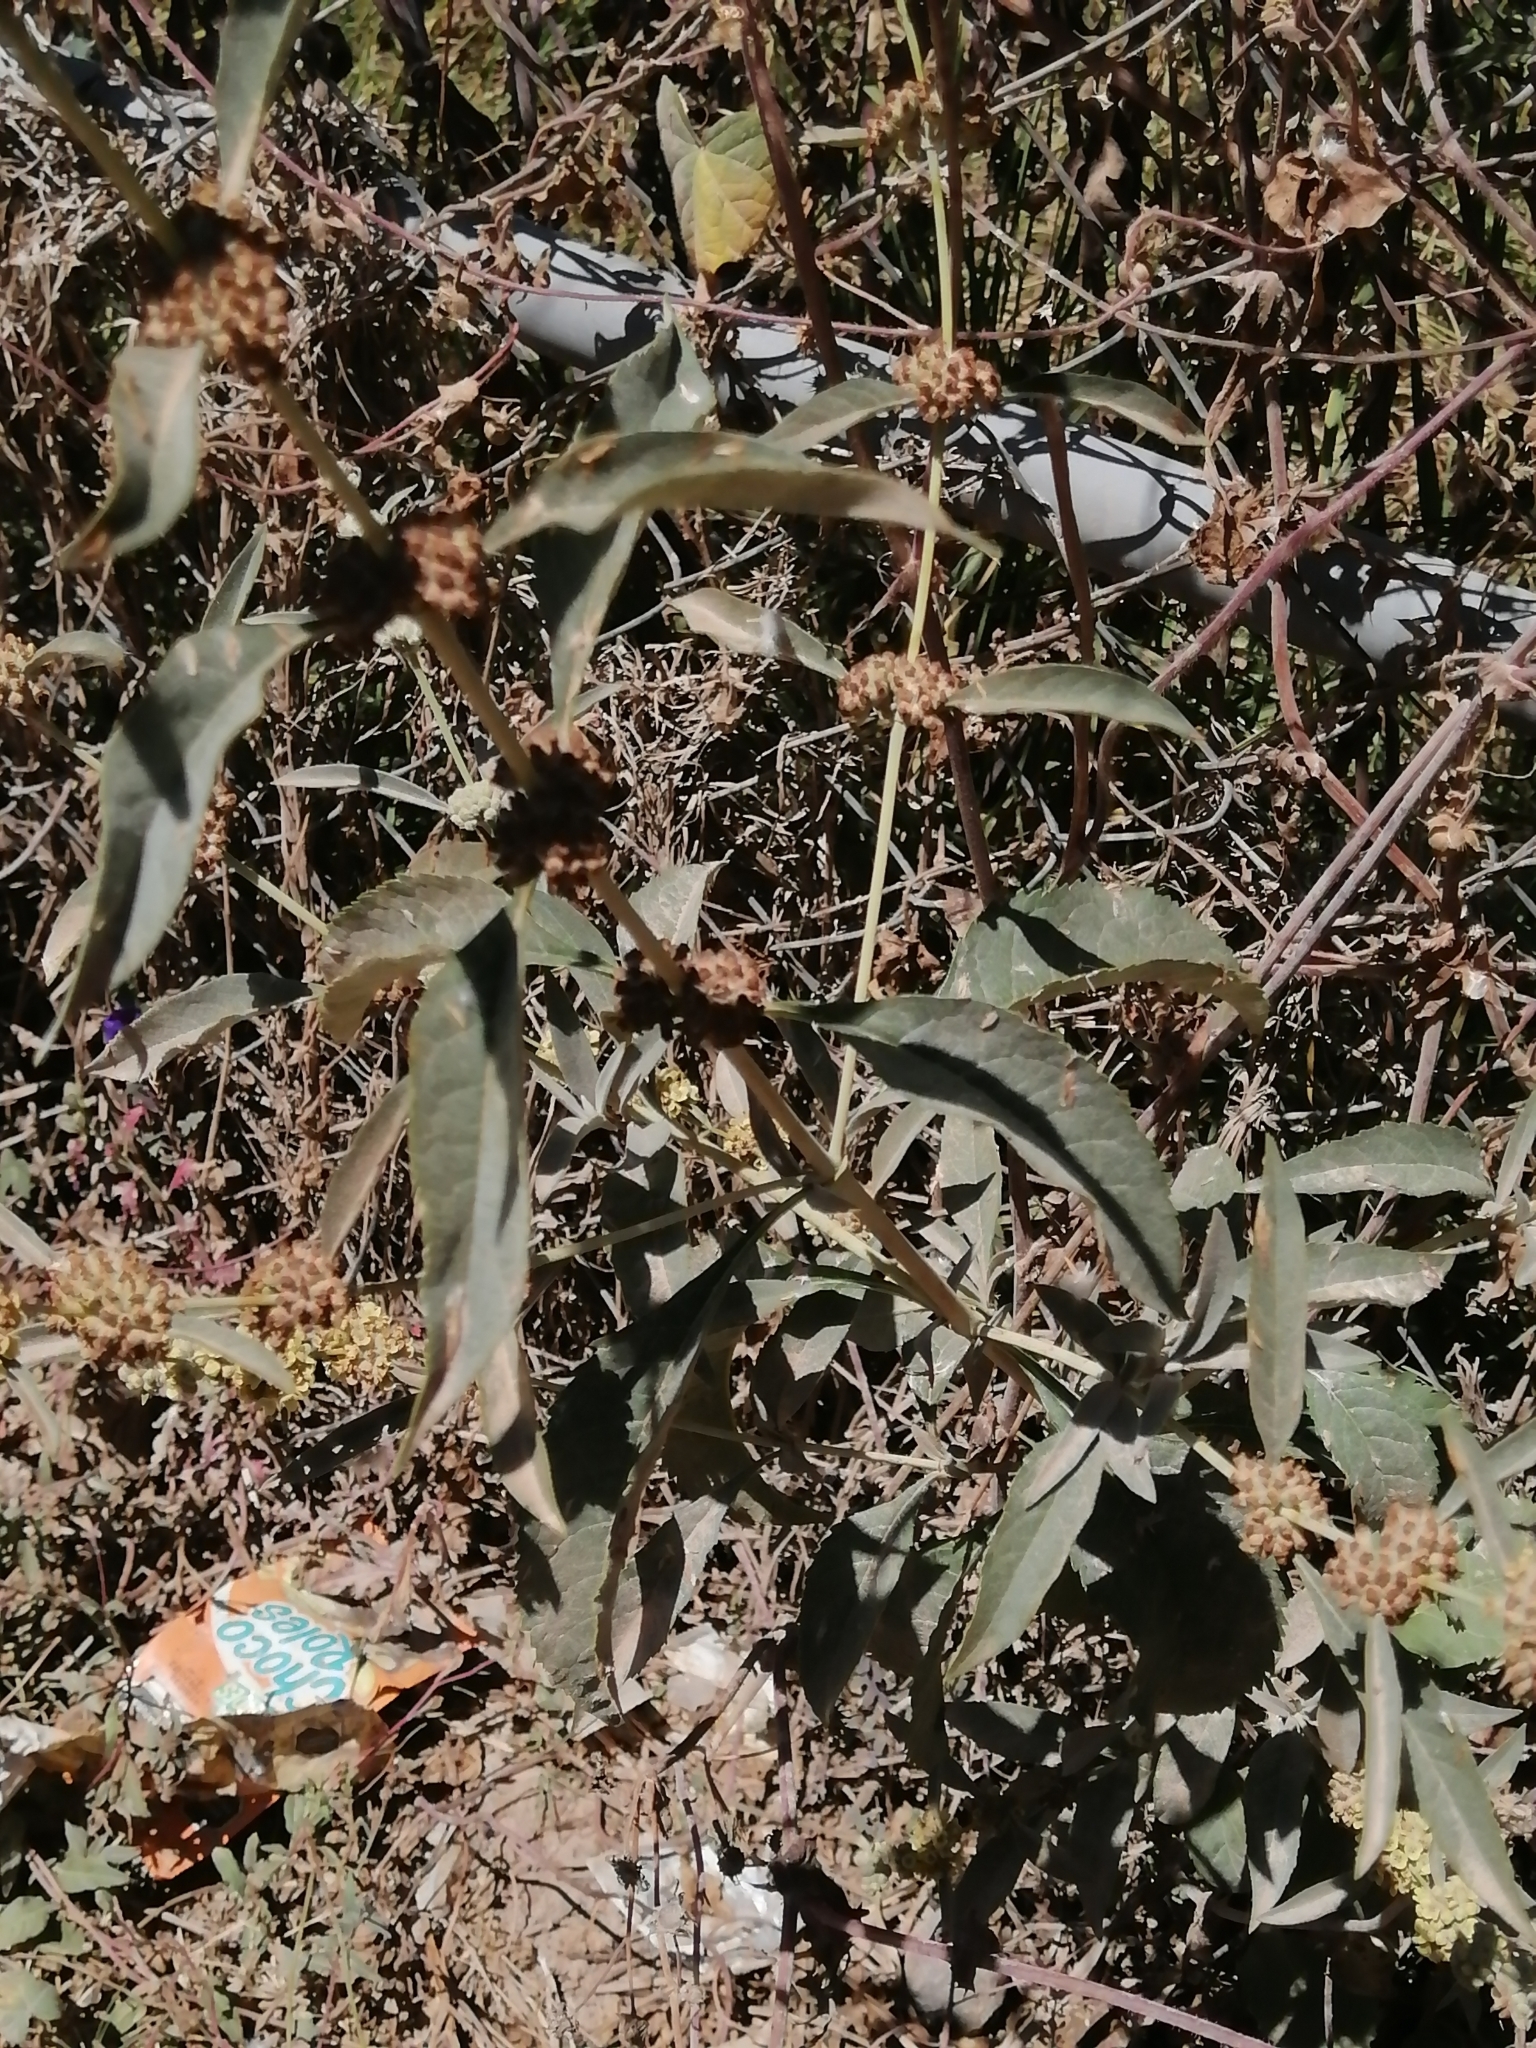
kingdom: Plantae
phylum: Tracheophyta
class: Magnoliopsida
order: Lamiales
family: Scrophulariaceae
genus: Buddleja
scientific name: Buddleja sessiliflora
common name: Rio grande butterfly-bush
